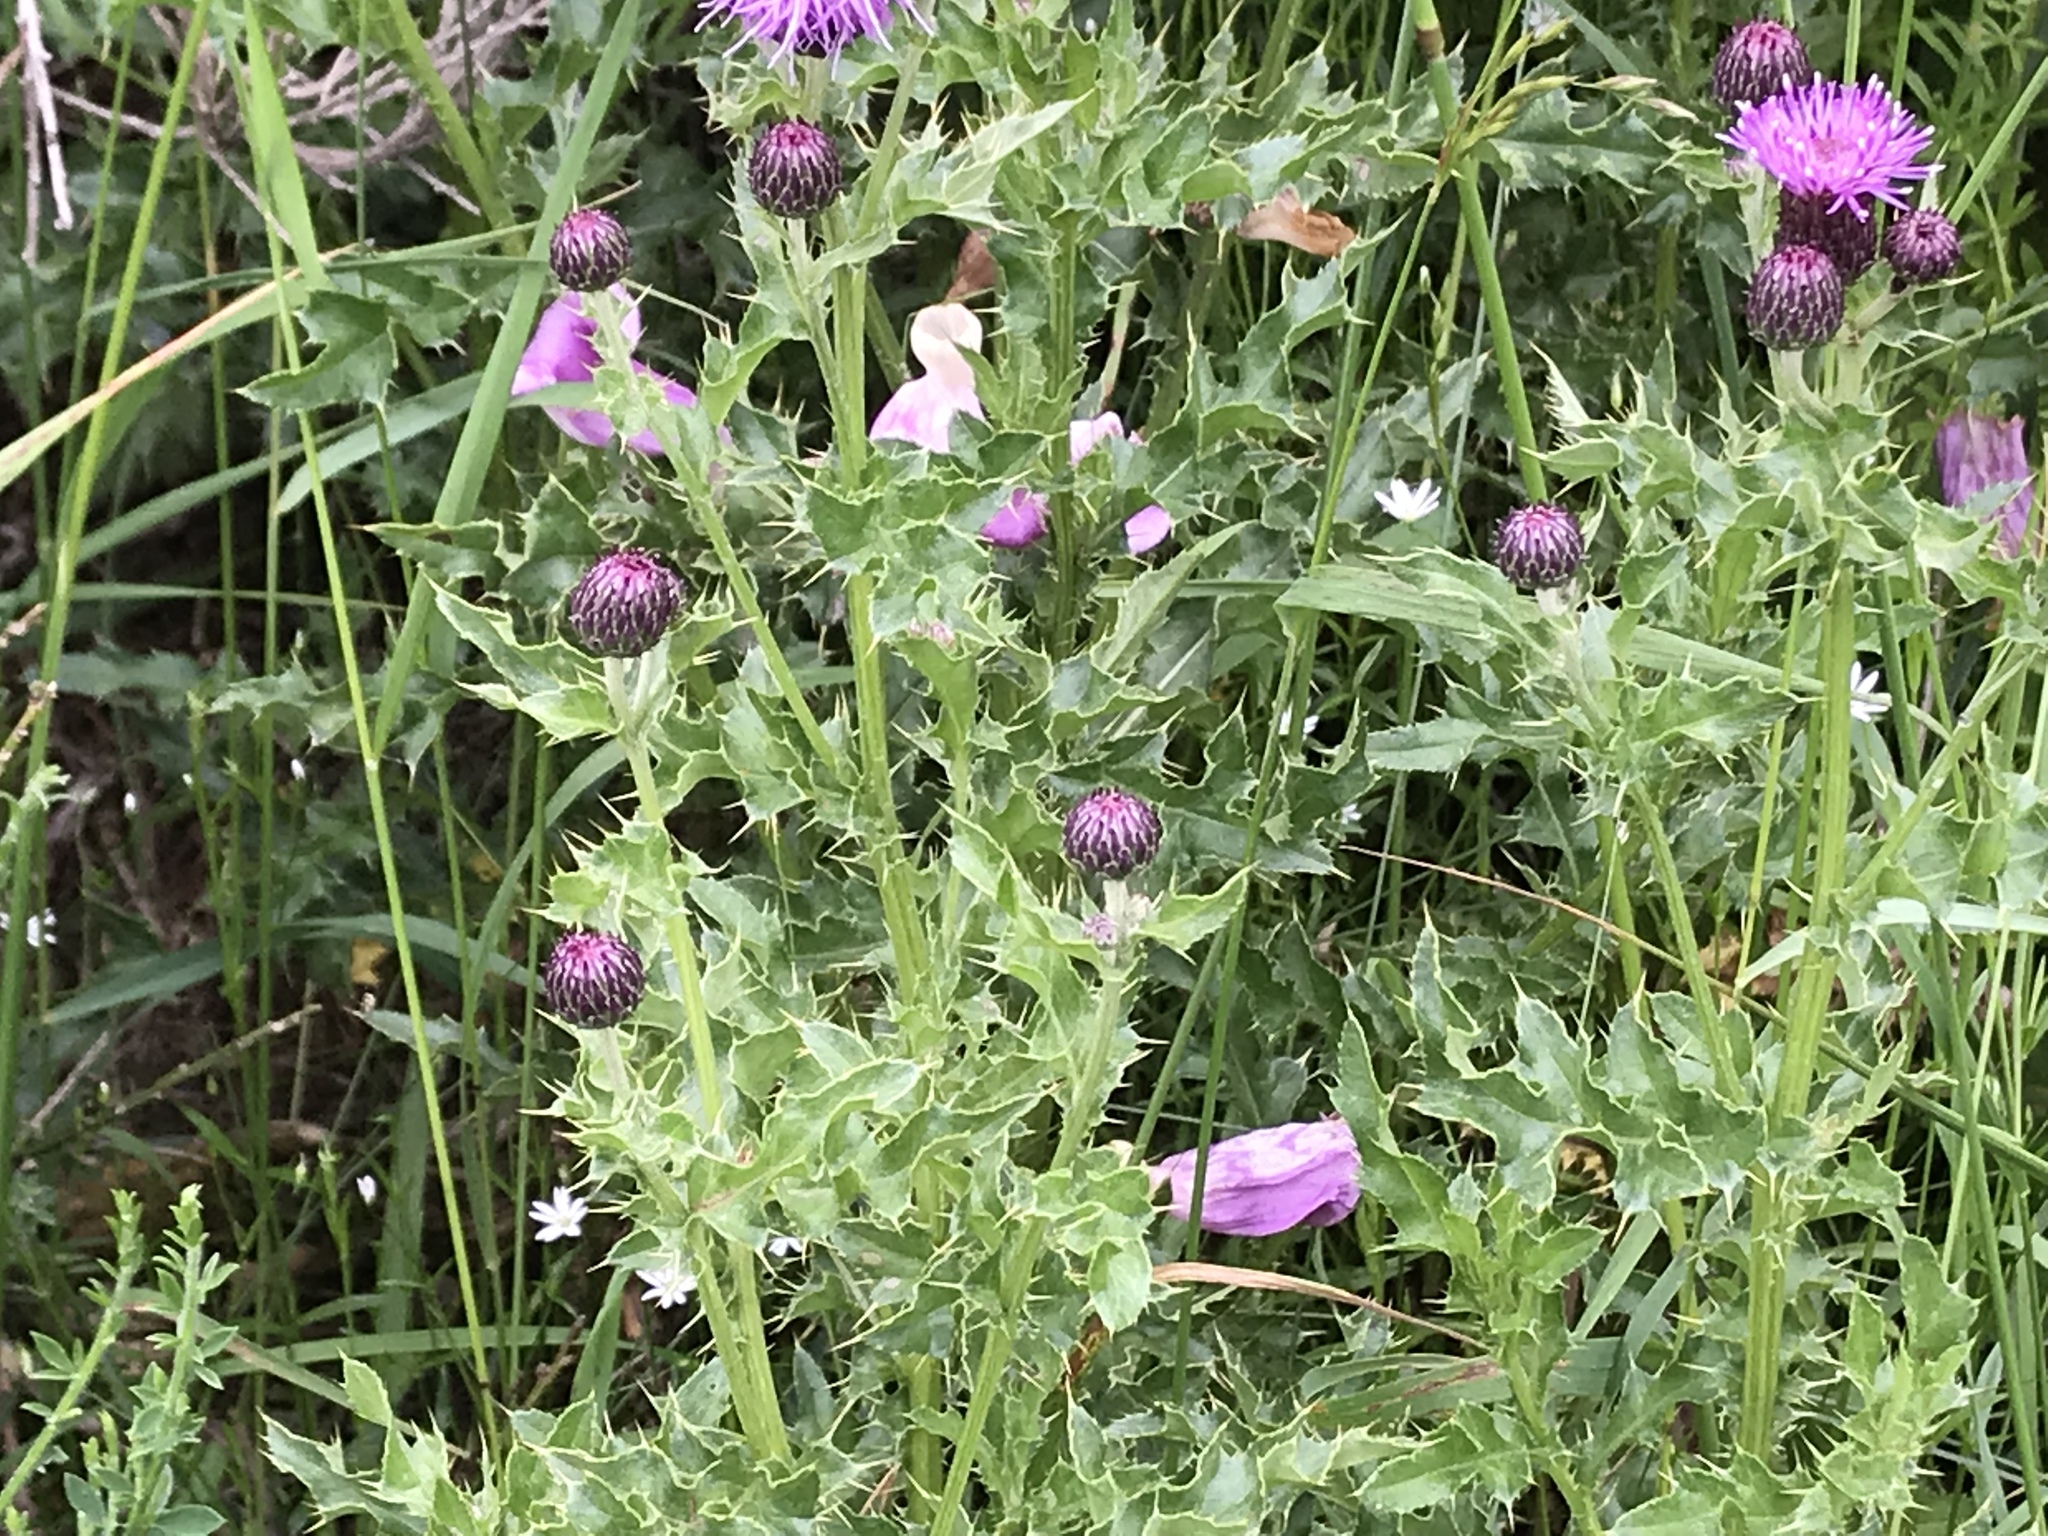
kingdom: Plantae
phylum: Tracheophyta
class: Magnoliopsida
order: Asterales
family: Asteraceae
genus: Cirsium
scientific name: Cirsium arvense
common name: Creeping thistle
